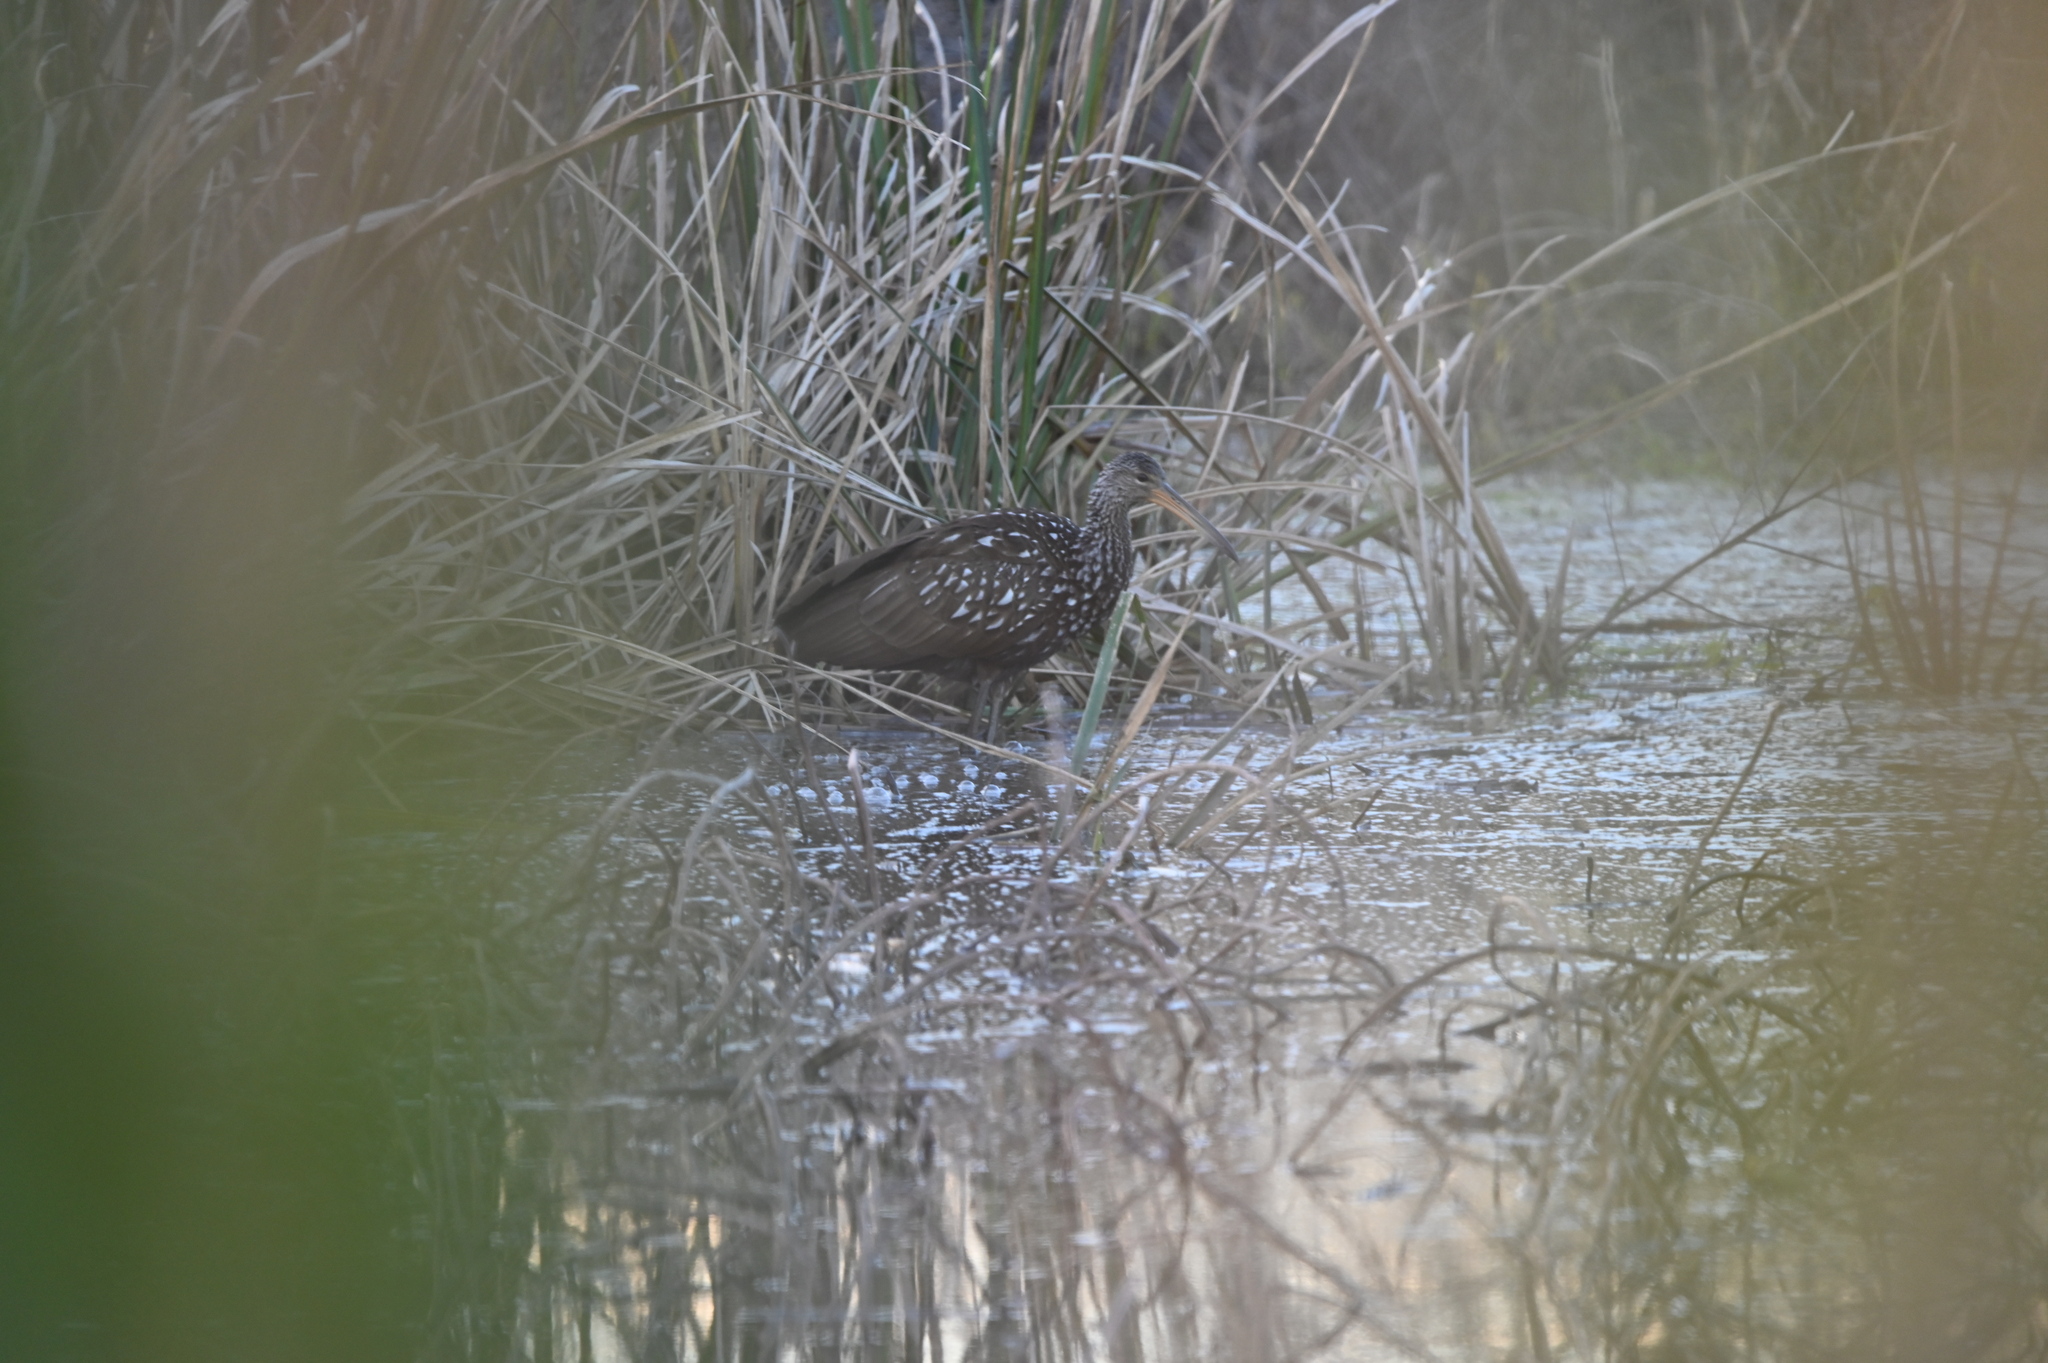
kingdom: Animalia
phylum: Chordata
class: Aves
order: Gruiformes
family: Aramidae
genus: Aramus
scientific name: Aramus guarauna
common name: Limpkin
